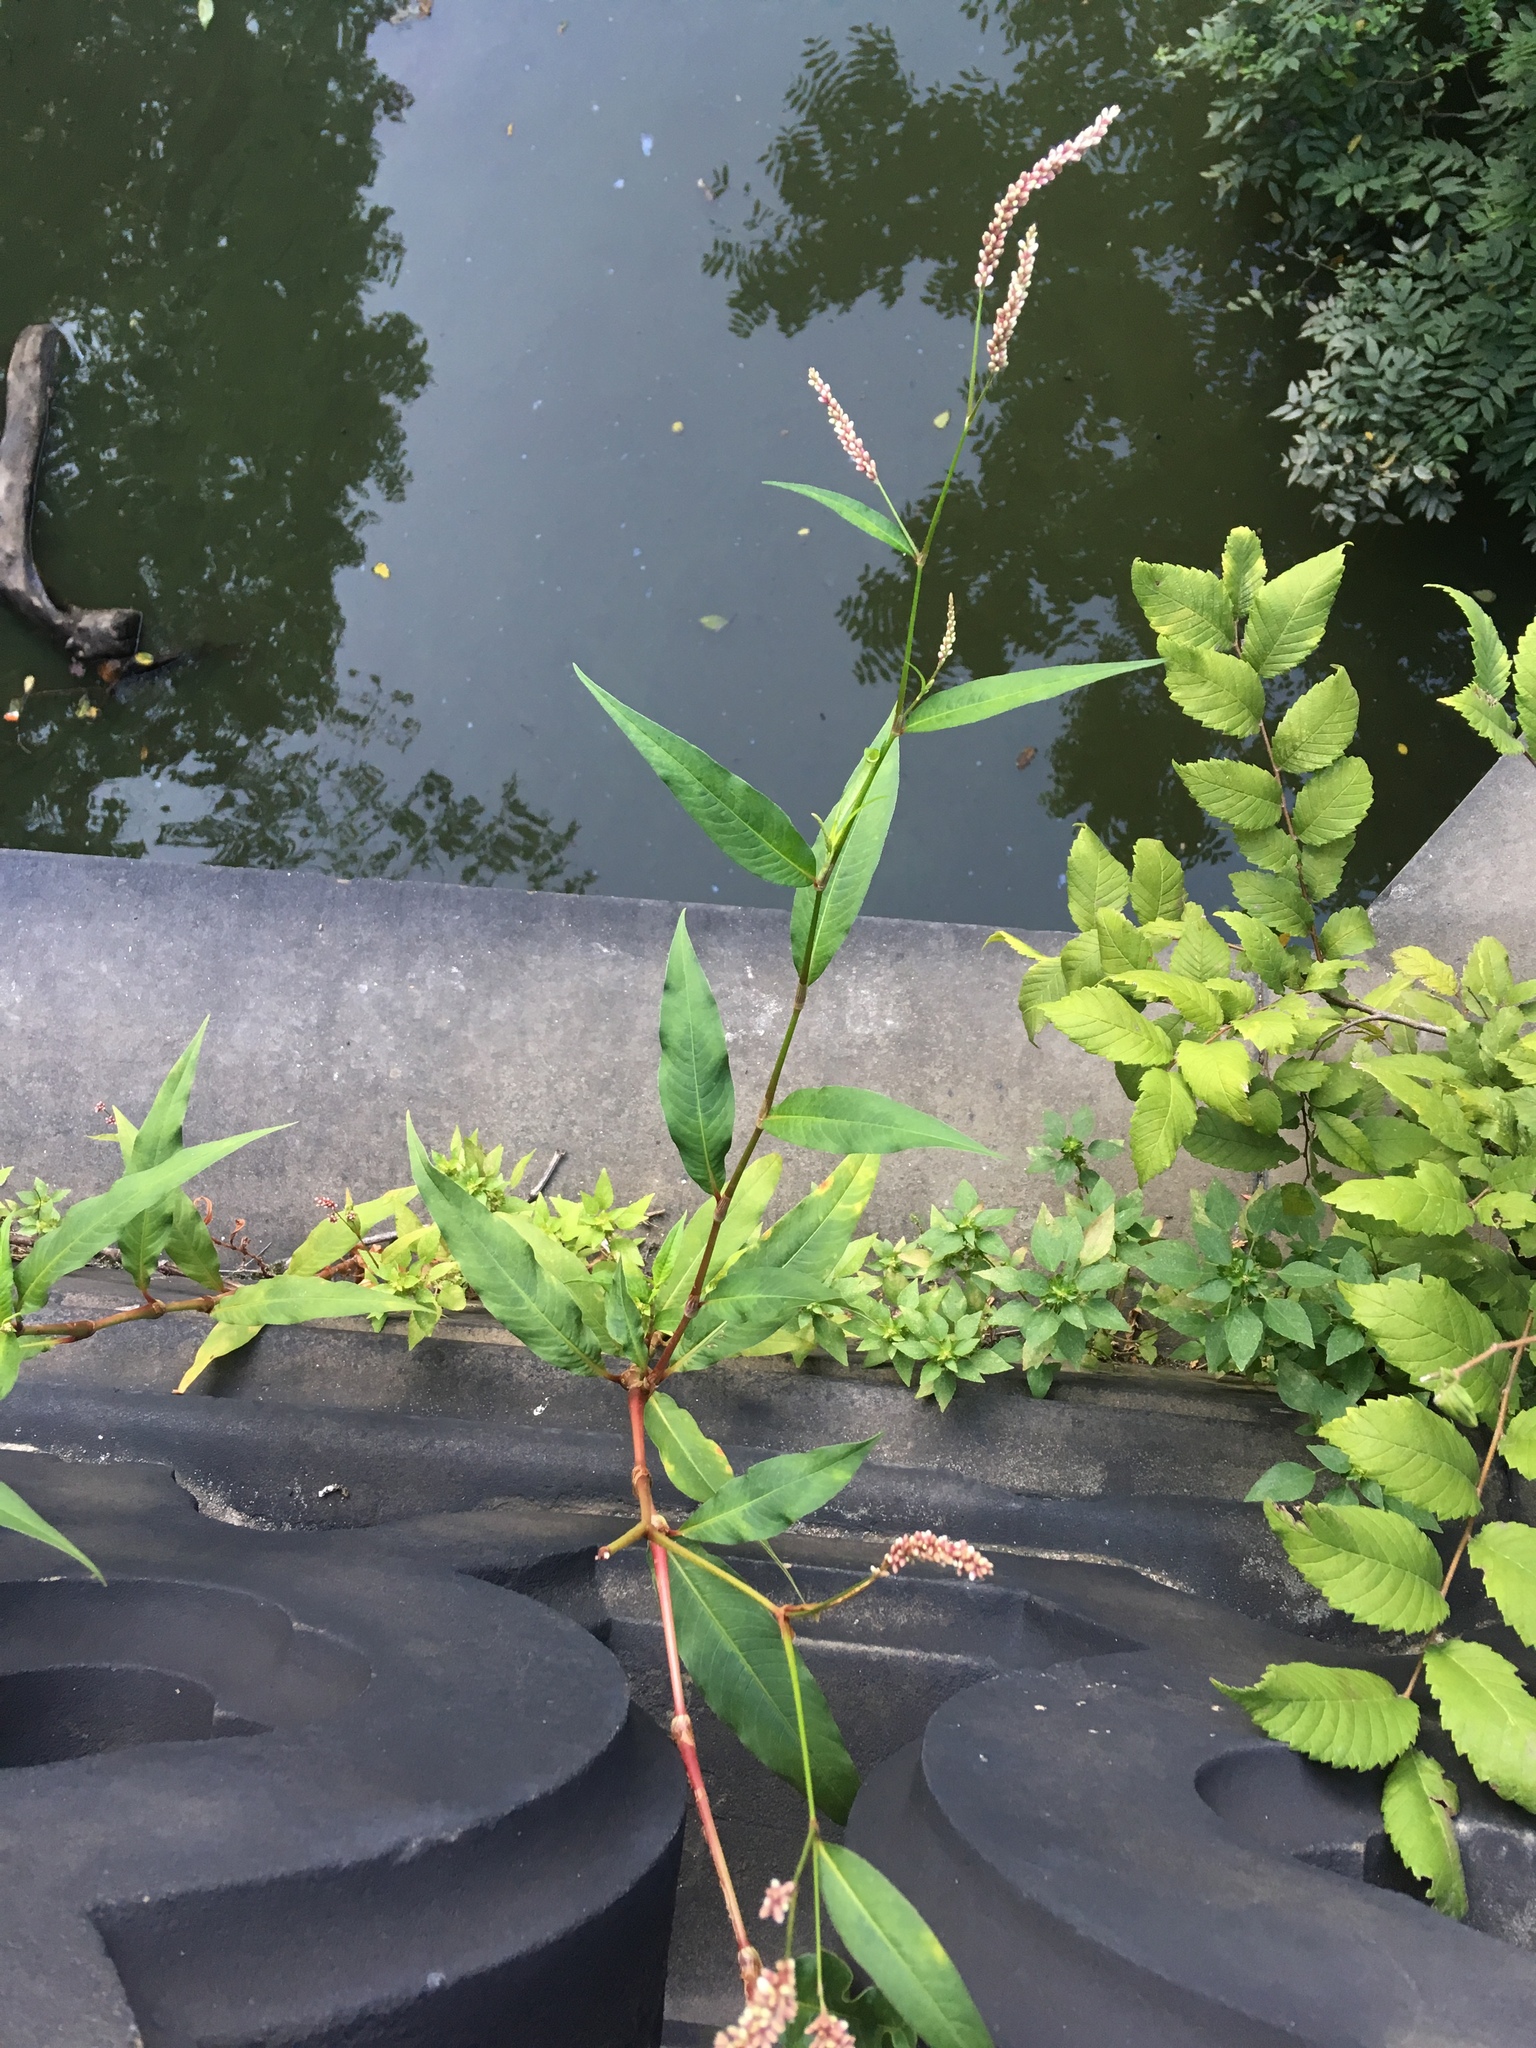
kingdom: Plantae
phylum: Tracheophyta
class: Magnoliopsida
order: Caryophyllales
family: Polygonaceae
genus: Persicaria
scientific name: Persicaria extremiorientalis
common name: Far-eastern smartweed
